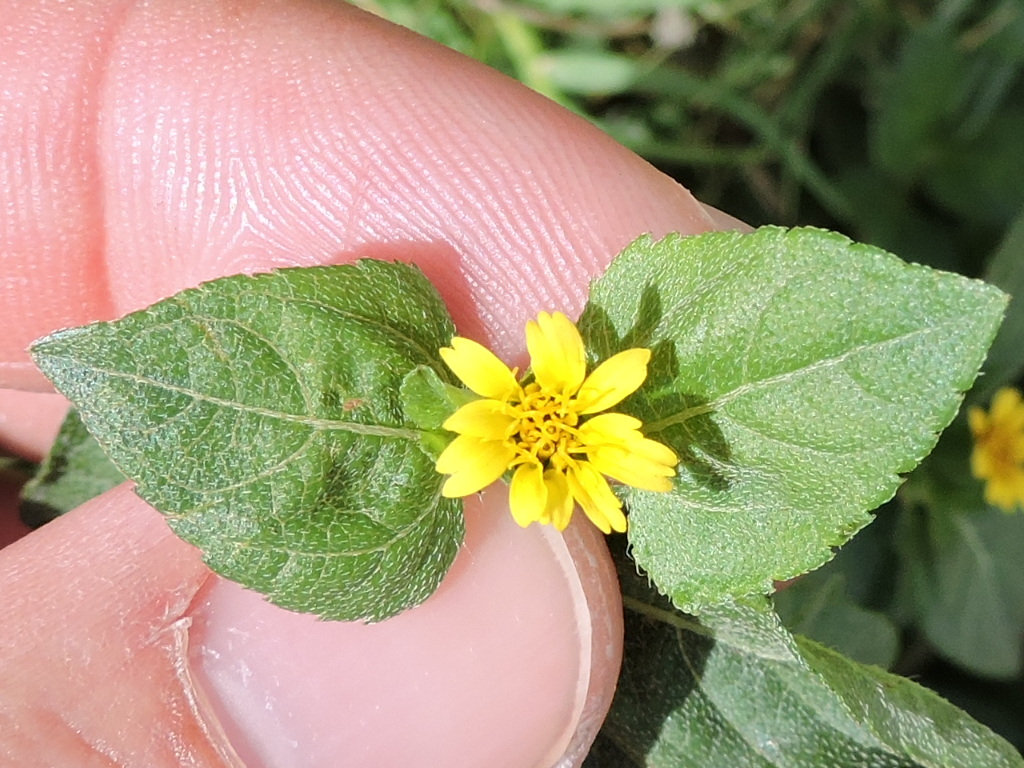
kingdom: Plantae
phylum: Tracheophyta
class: Magnoliopsida
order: Asterales
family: Asteraceae
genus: Calyptocarpus
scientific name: Calyptocarpus vialis
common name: Straggler daisy
